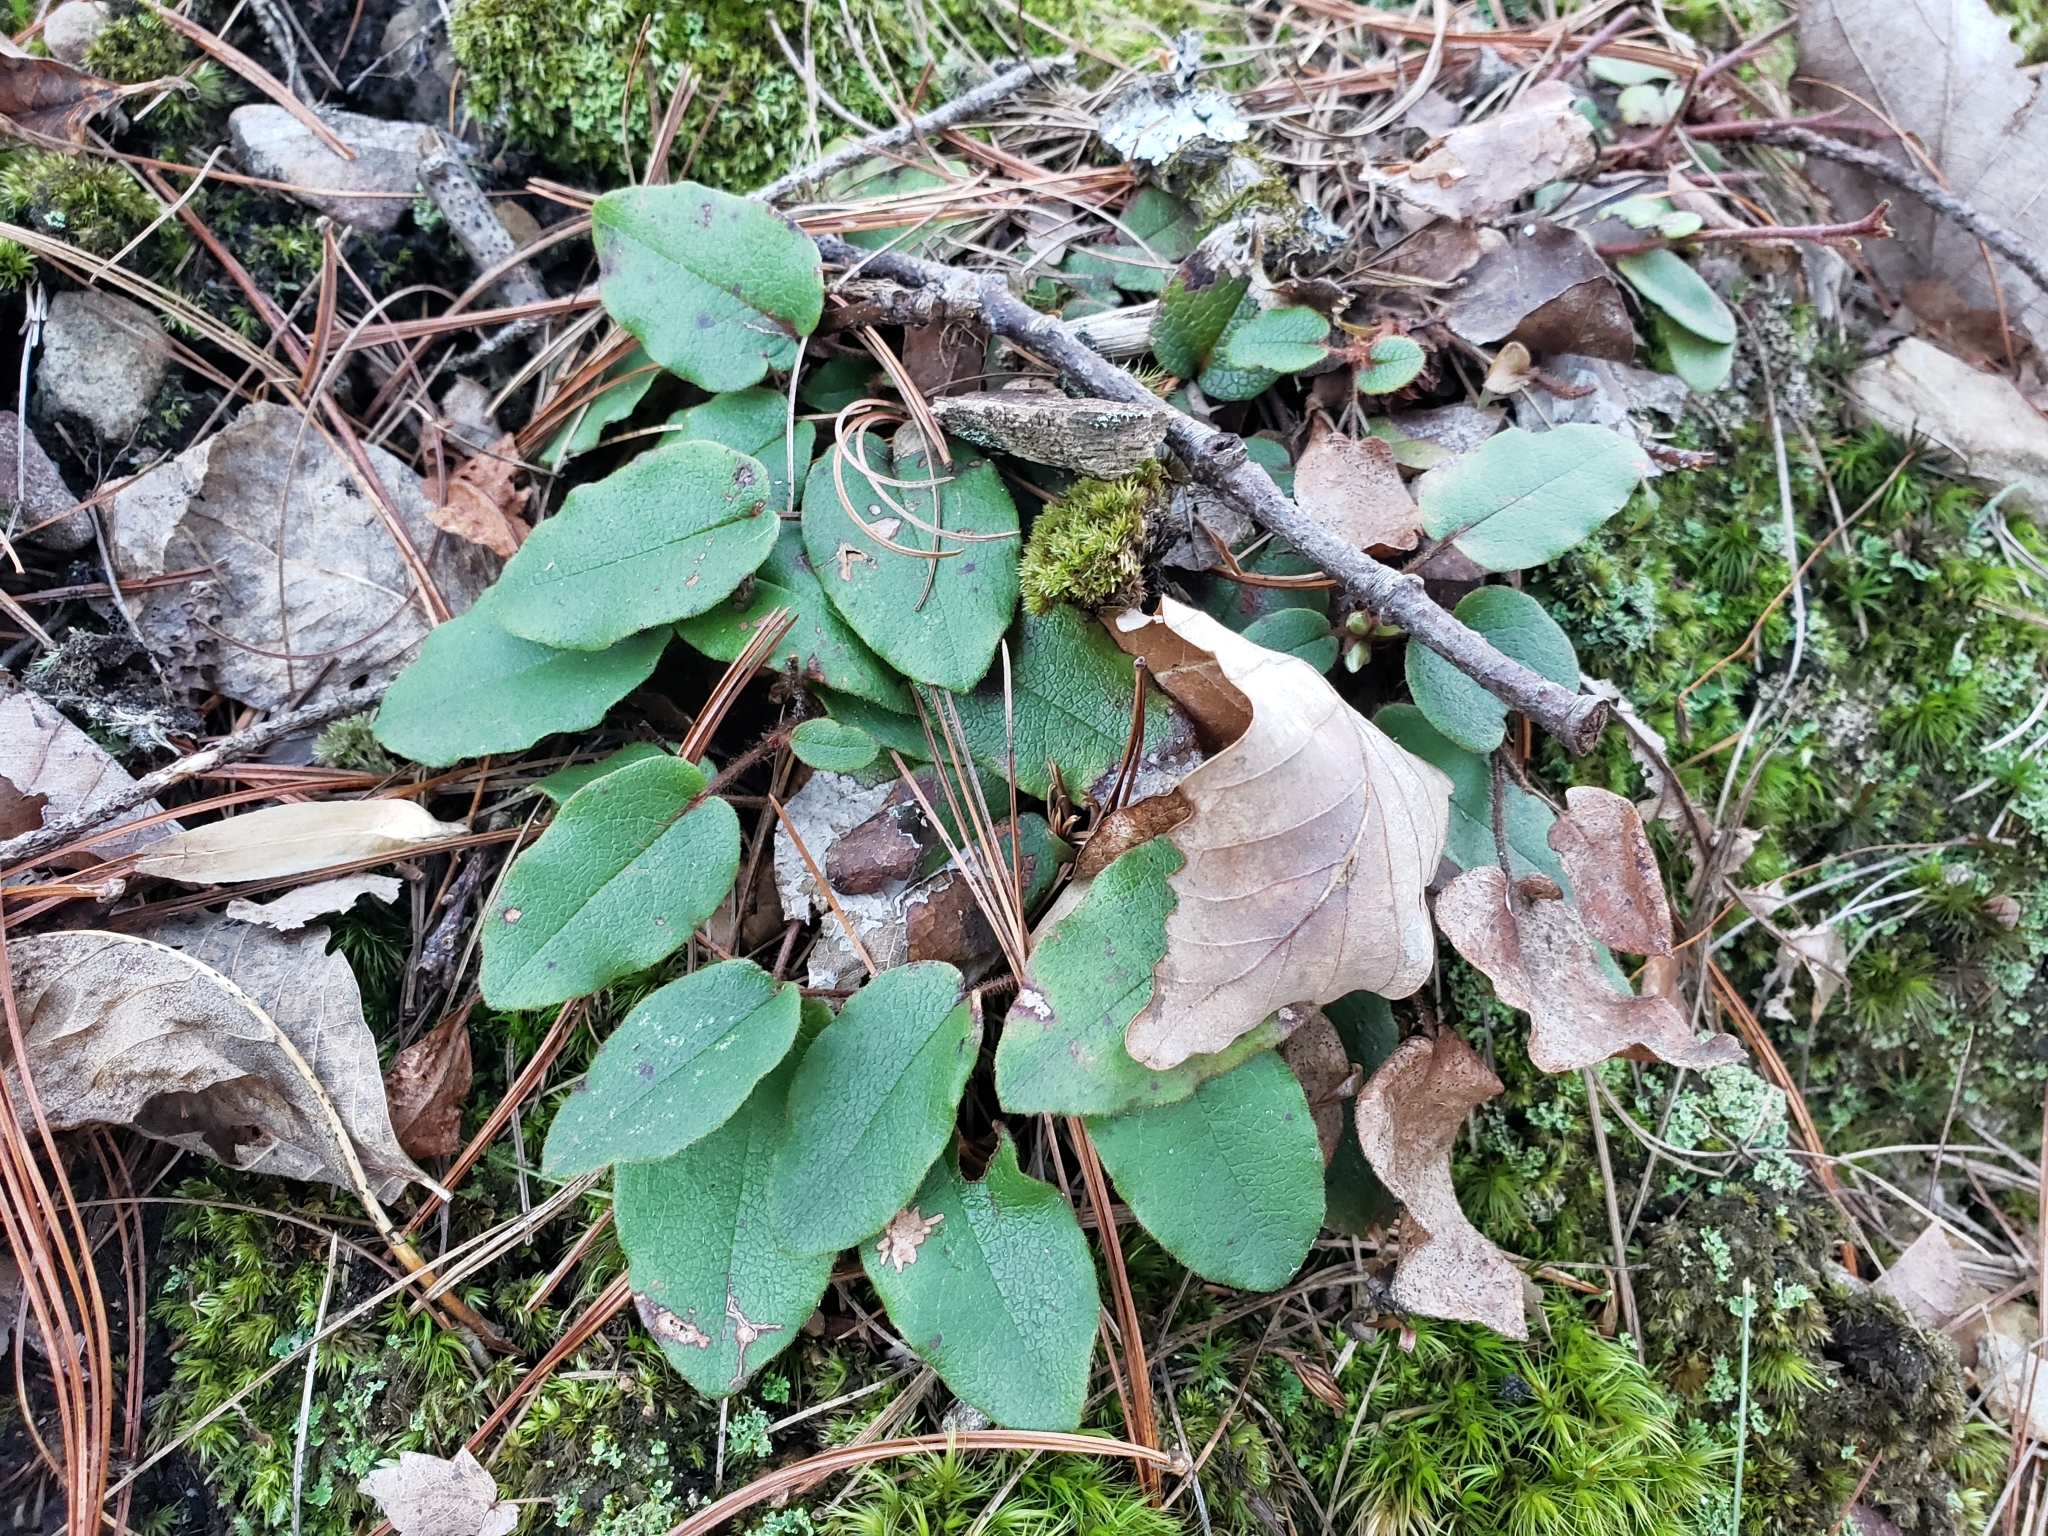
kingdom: Plantae
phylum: Tracheophyta
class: Magnoliopsida
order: Ericales
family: Ericaceae
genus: Epigaea
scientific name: Epigaea repens
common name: Gravelroot
